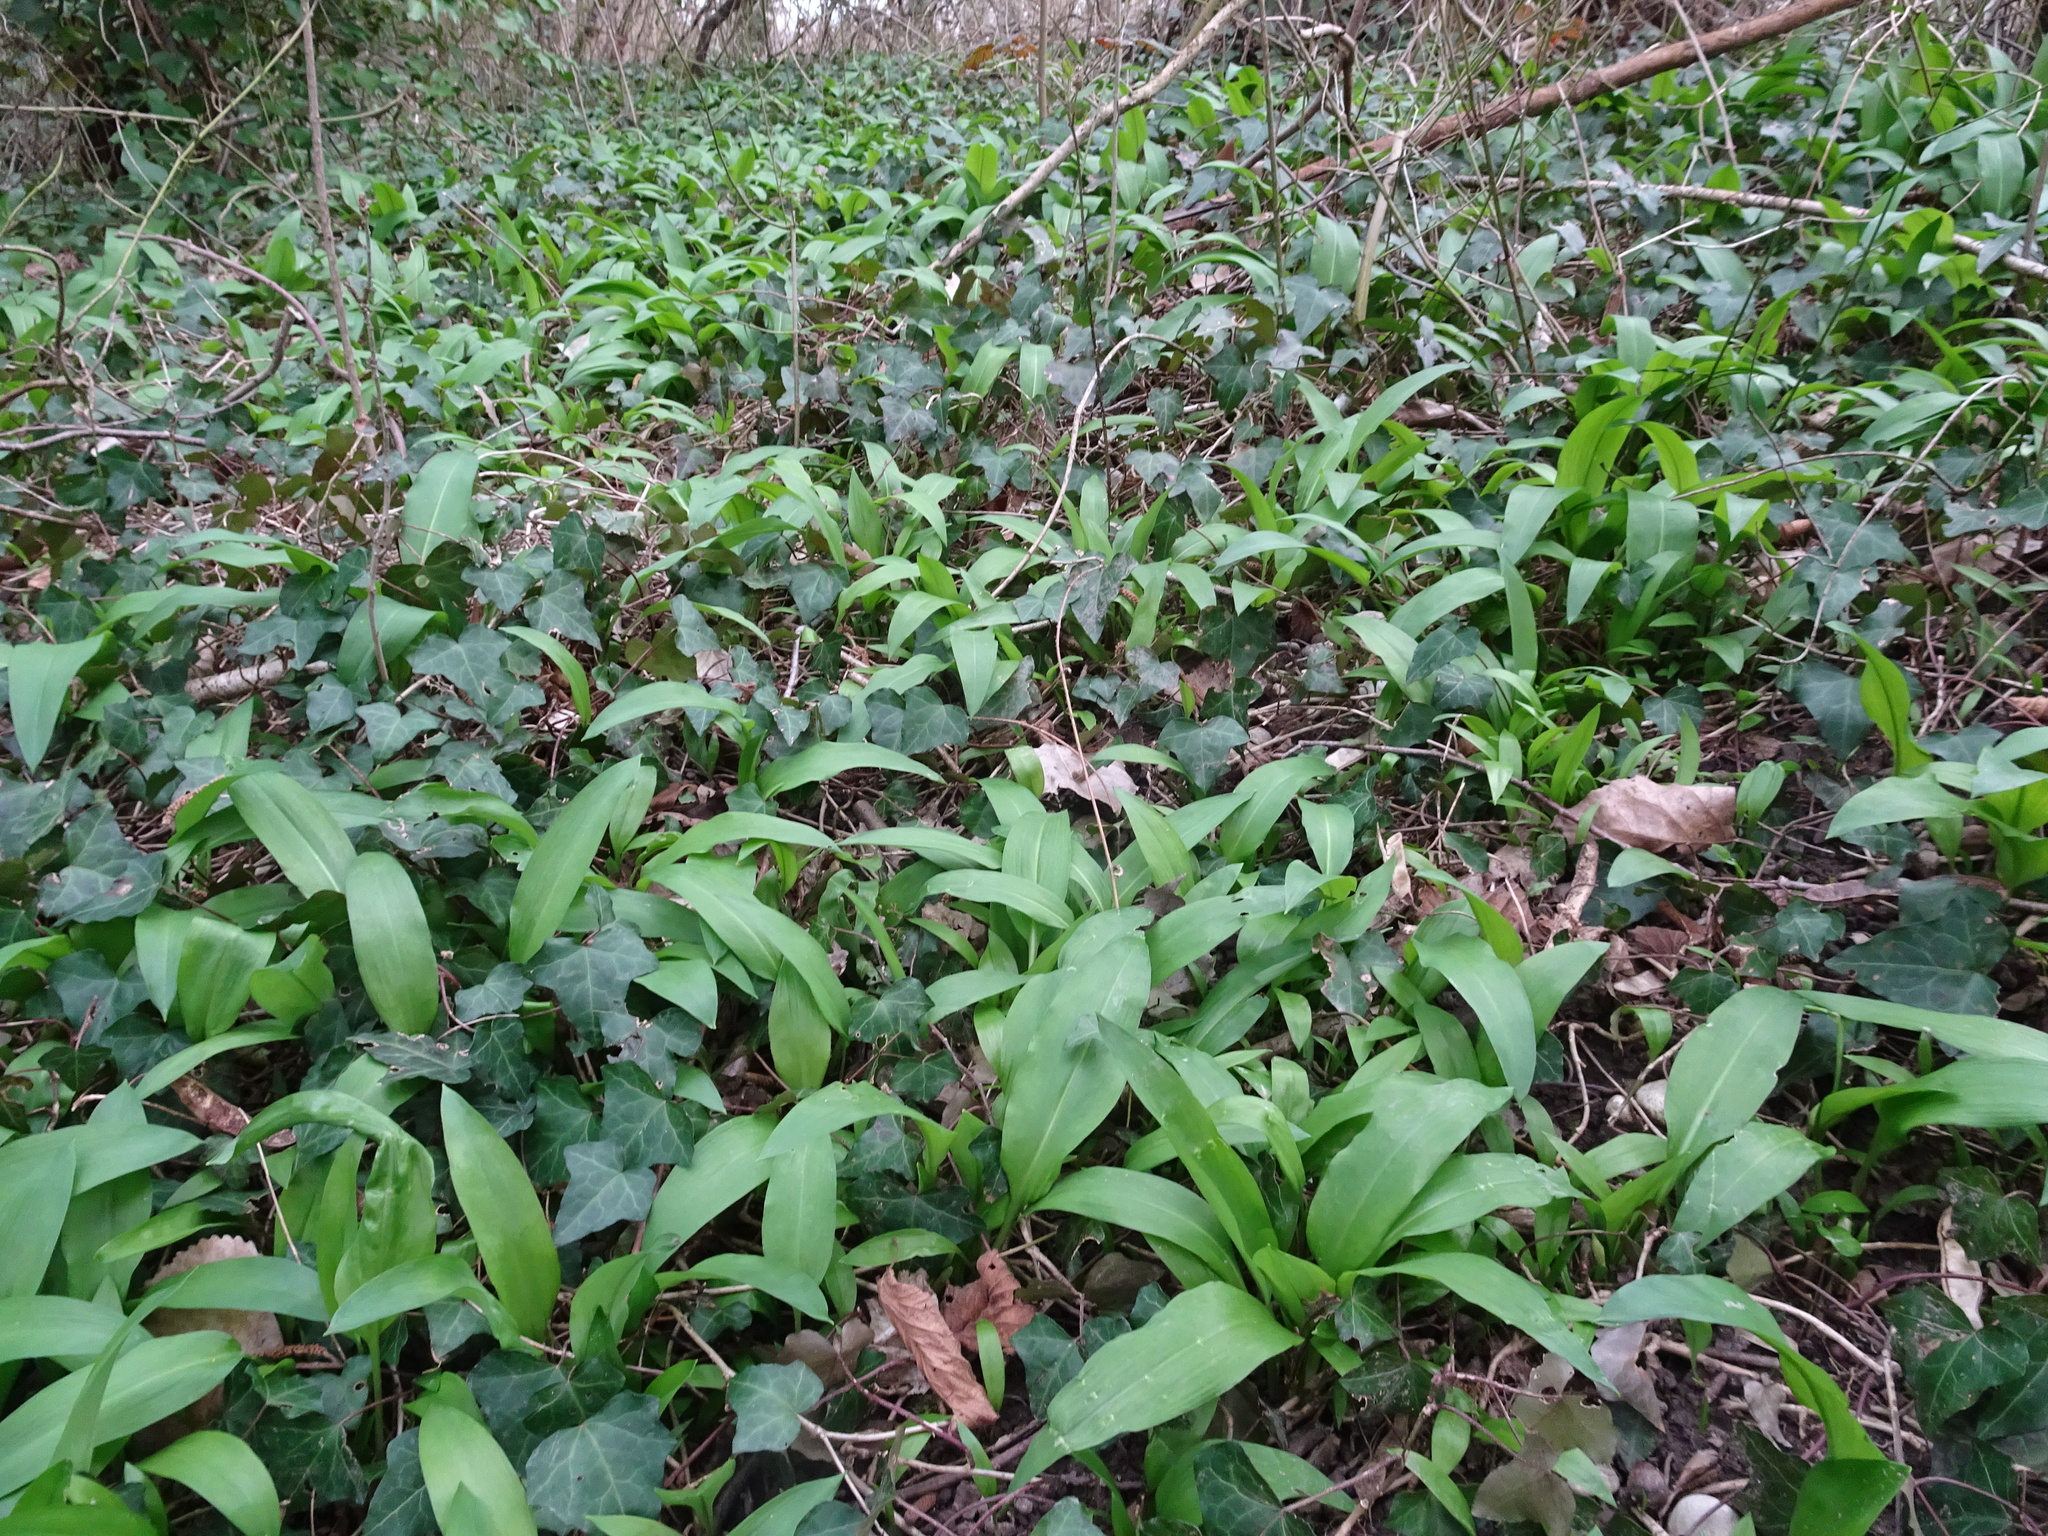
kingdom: Plantae
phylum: Tracheophyta
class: Liliopsida
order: Asparagales
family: Amaryllidaceae
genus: Allium
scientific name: Allium ursinum
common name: Ramsons
